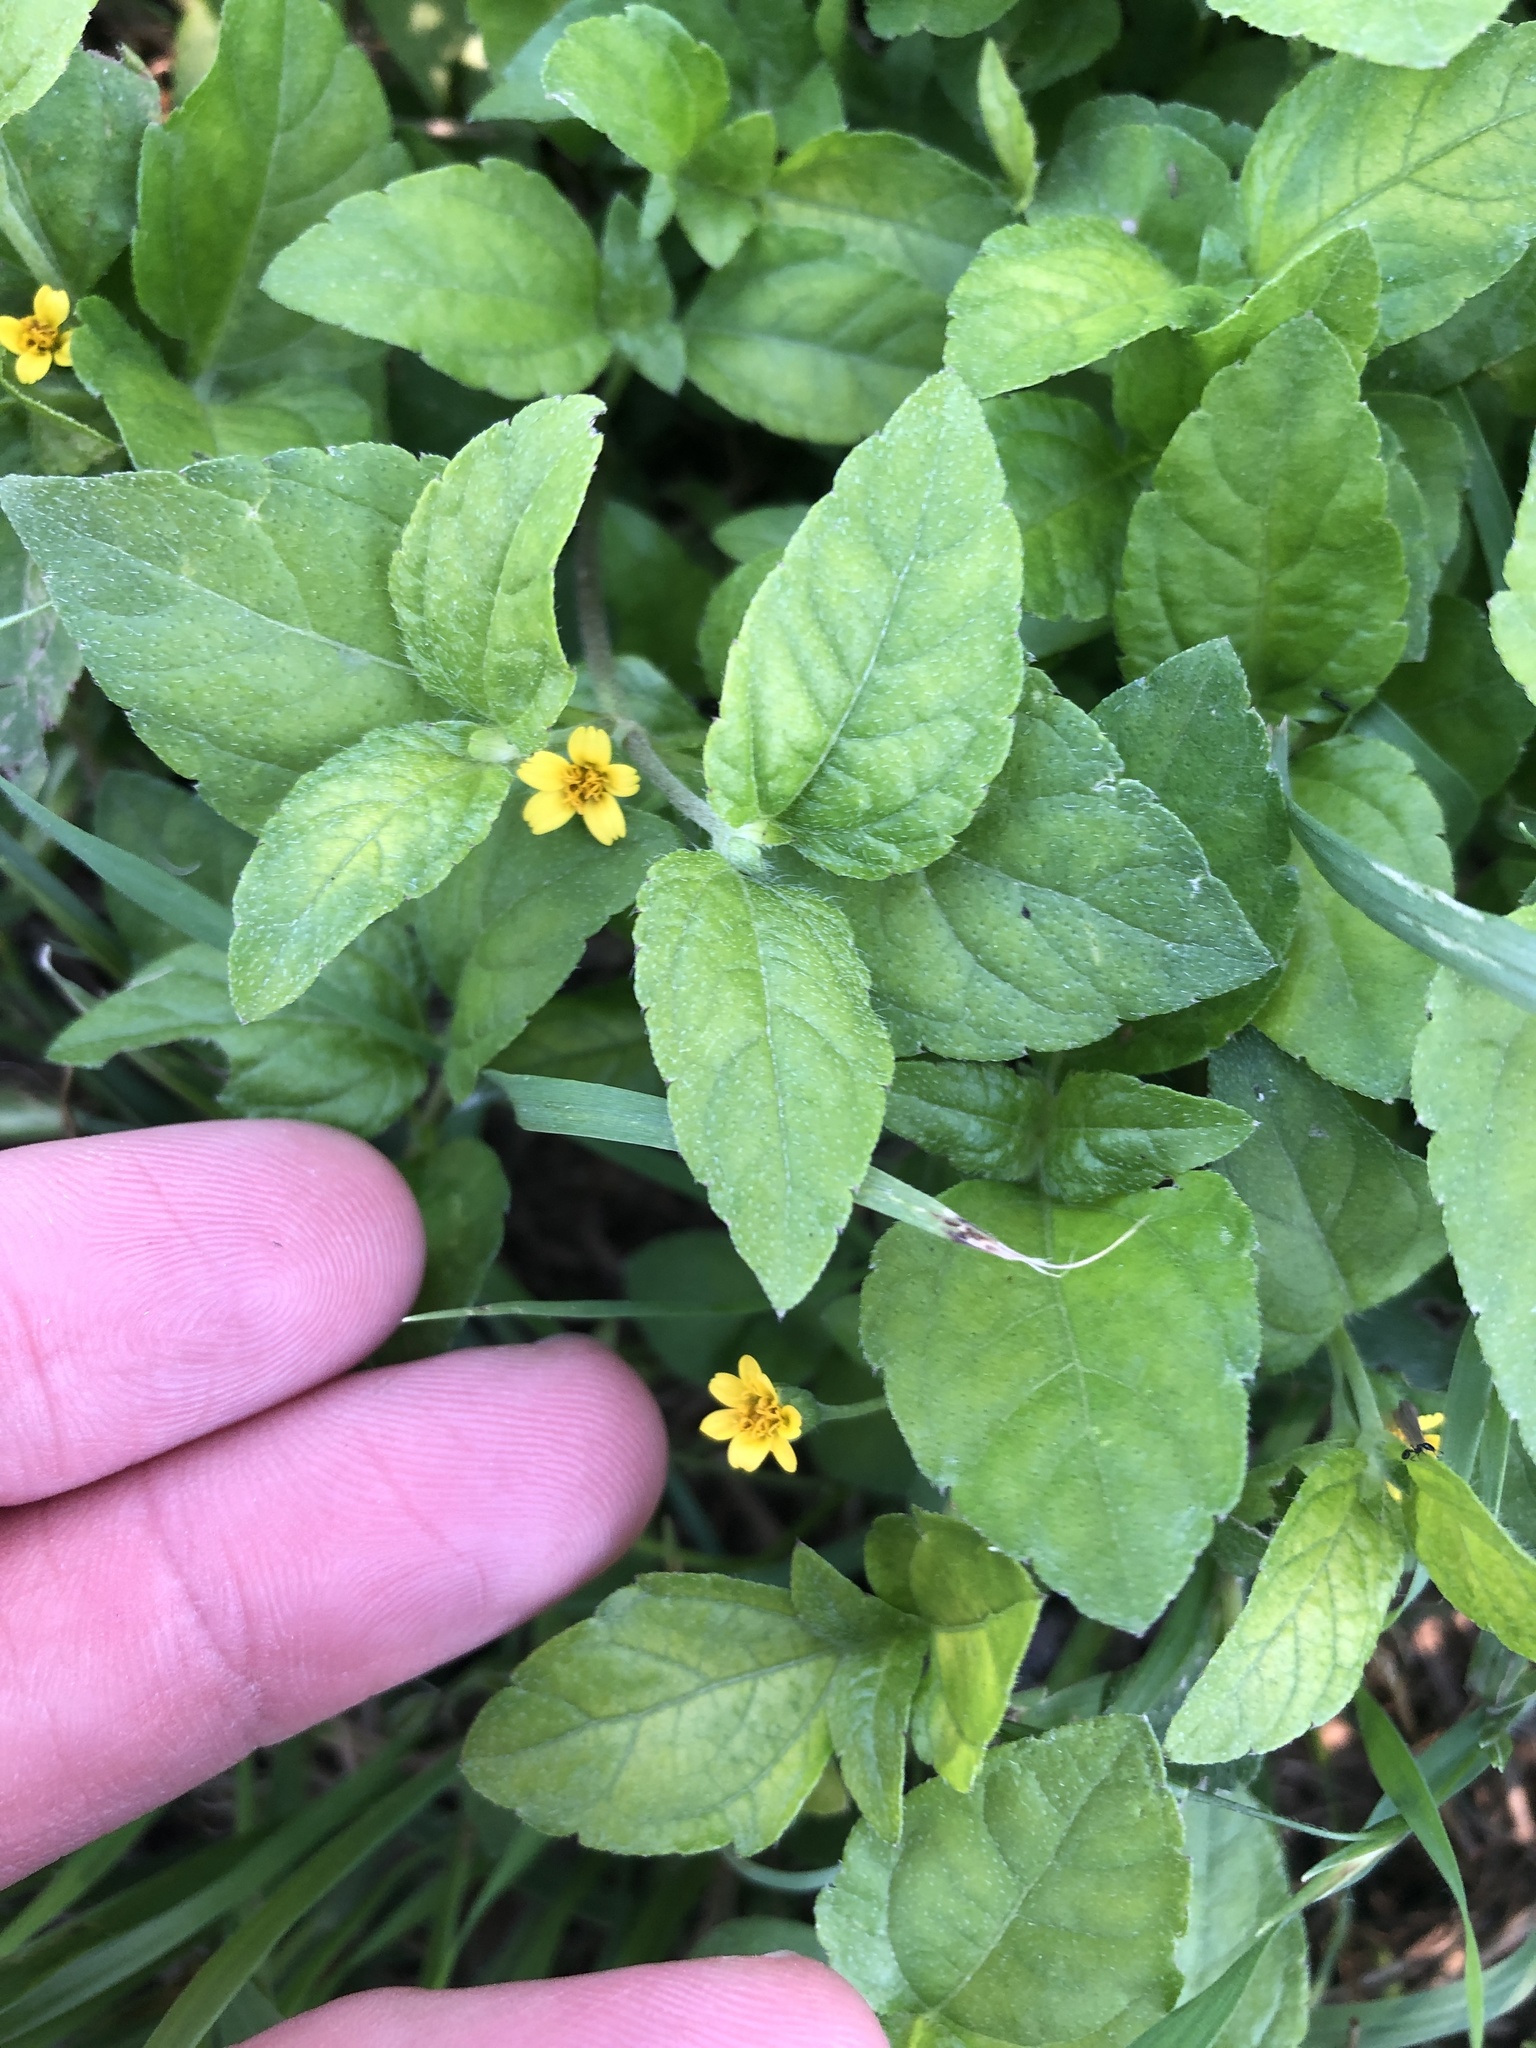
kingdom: Plantae
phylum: Tracheophyta
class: Magnoliopsida
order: Asterales
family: Asteraceae
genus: Calyptocarpus
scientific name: Calyptocarpus vialis
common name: Straggler daisy
